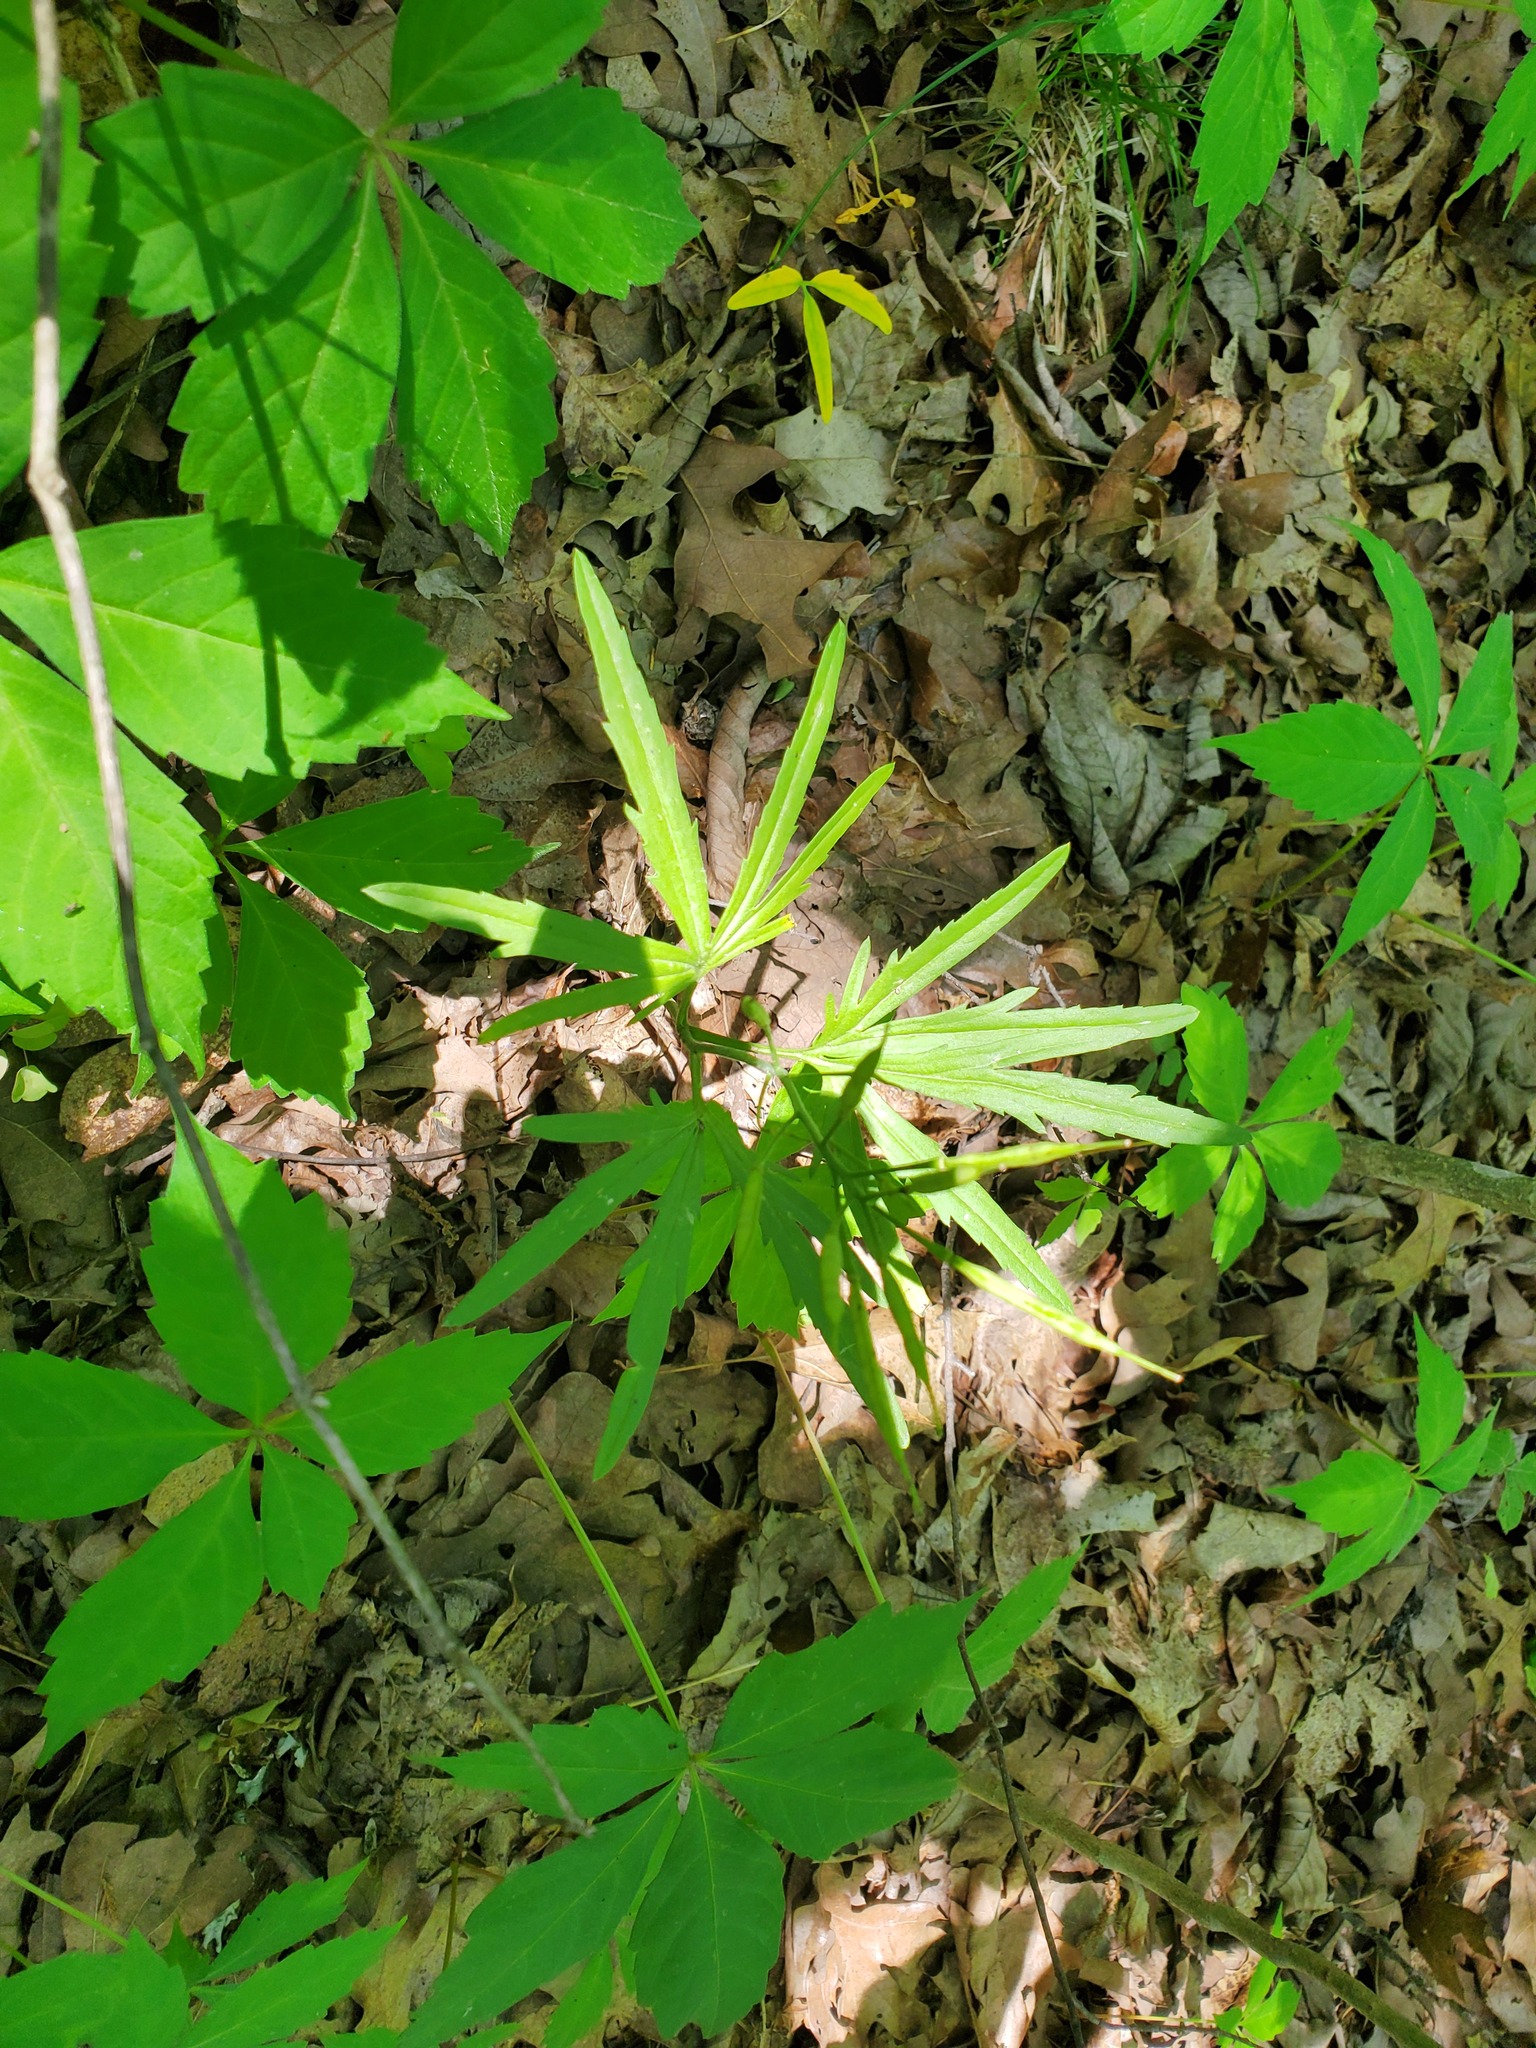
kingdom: Plantae
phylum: Tracheophyta
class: Magnoliopsida
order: Brassicales
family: Brassicaceae
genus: Cardamine
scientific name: Cardamine concatenata
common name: Cut-leaf toothcup
